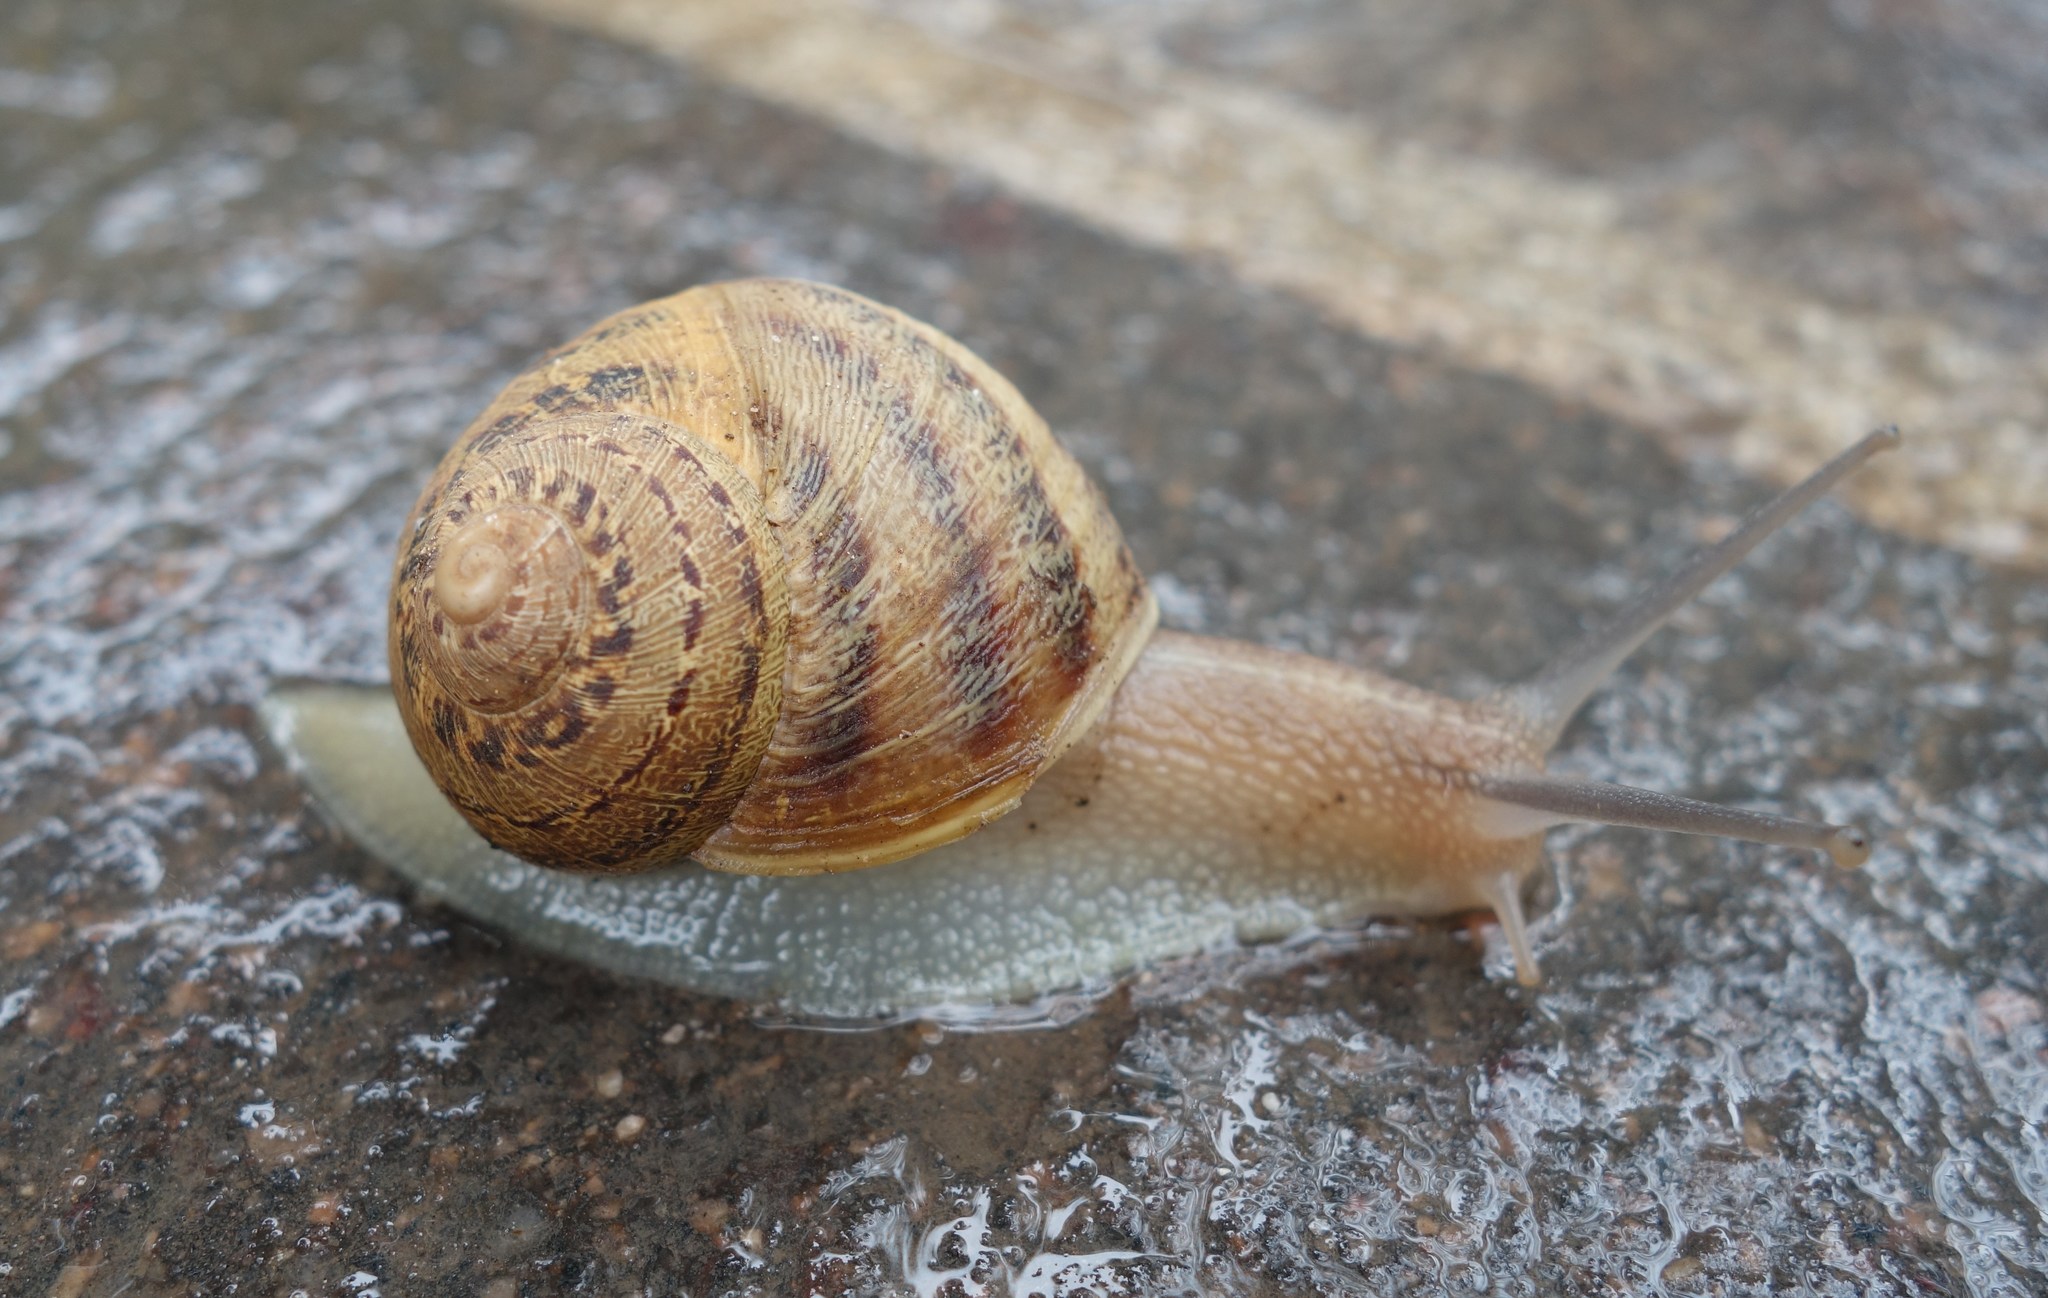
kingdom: Animalia
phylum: Mollusca
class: Gastropoda
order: Stylommatophora
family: Helicidae
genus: Cornu
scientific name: Cornu aspersum
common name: Brown garden snail
